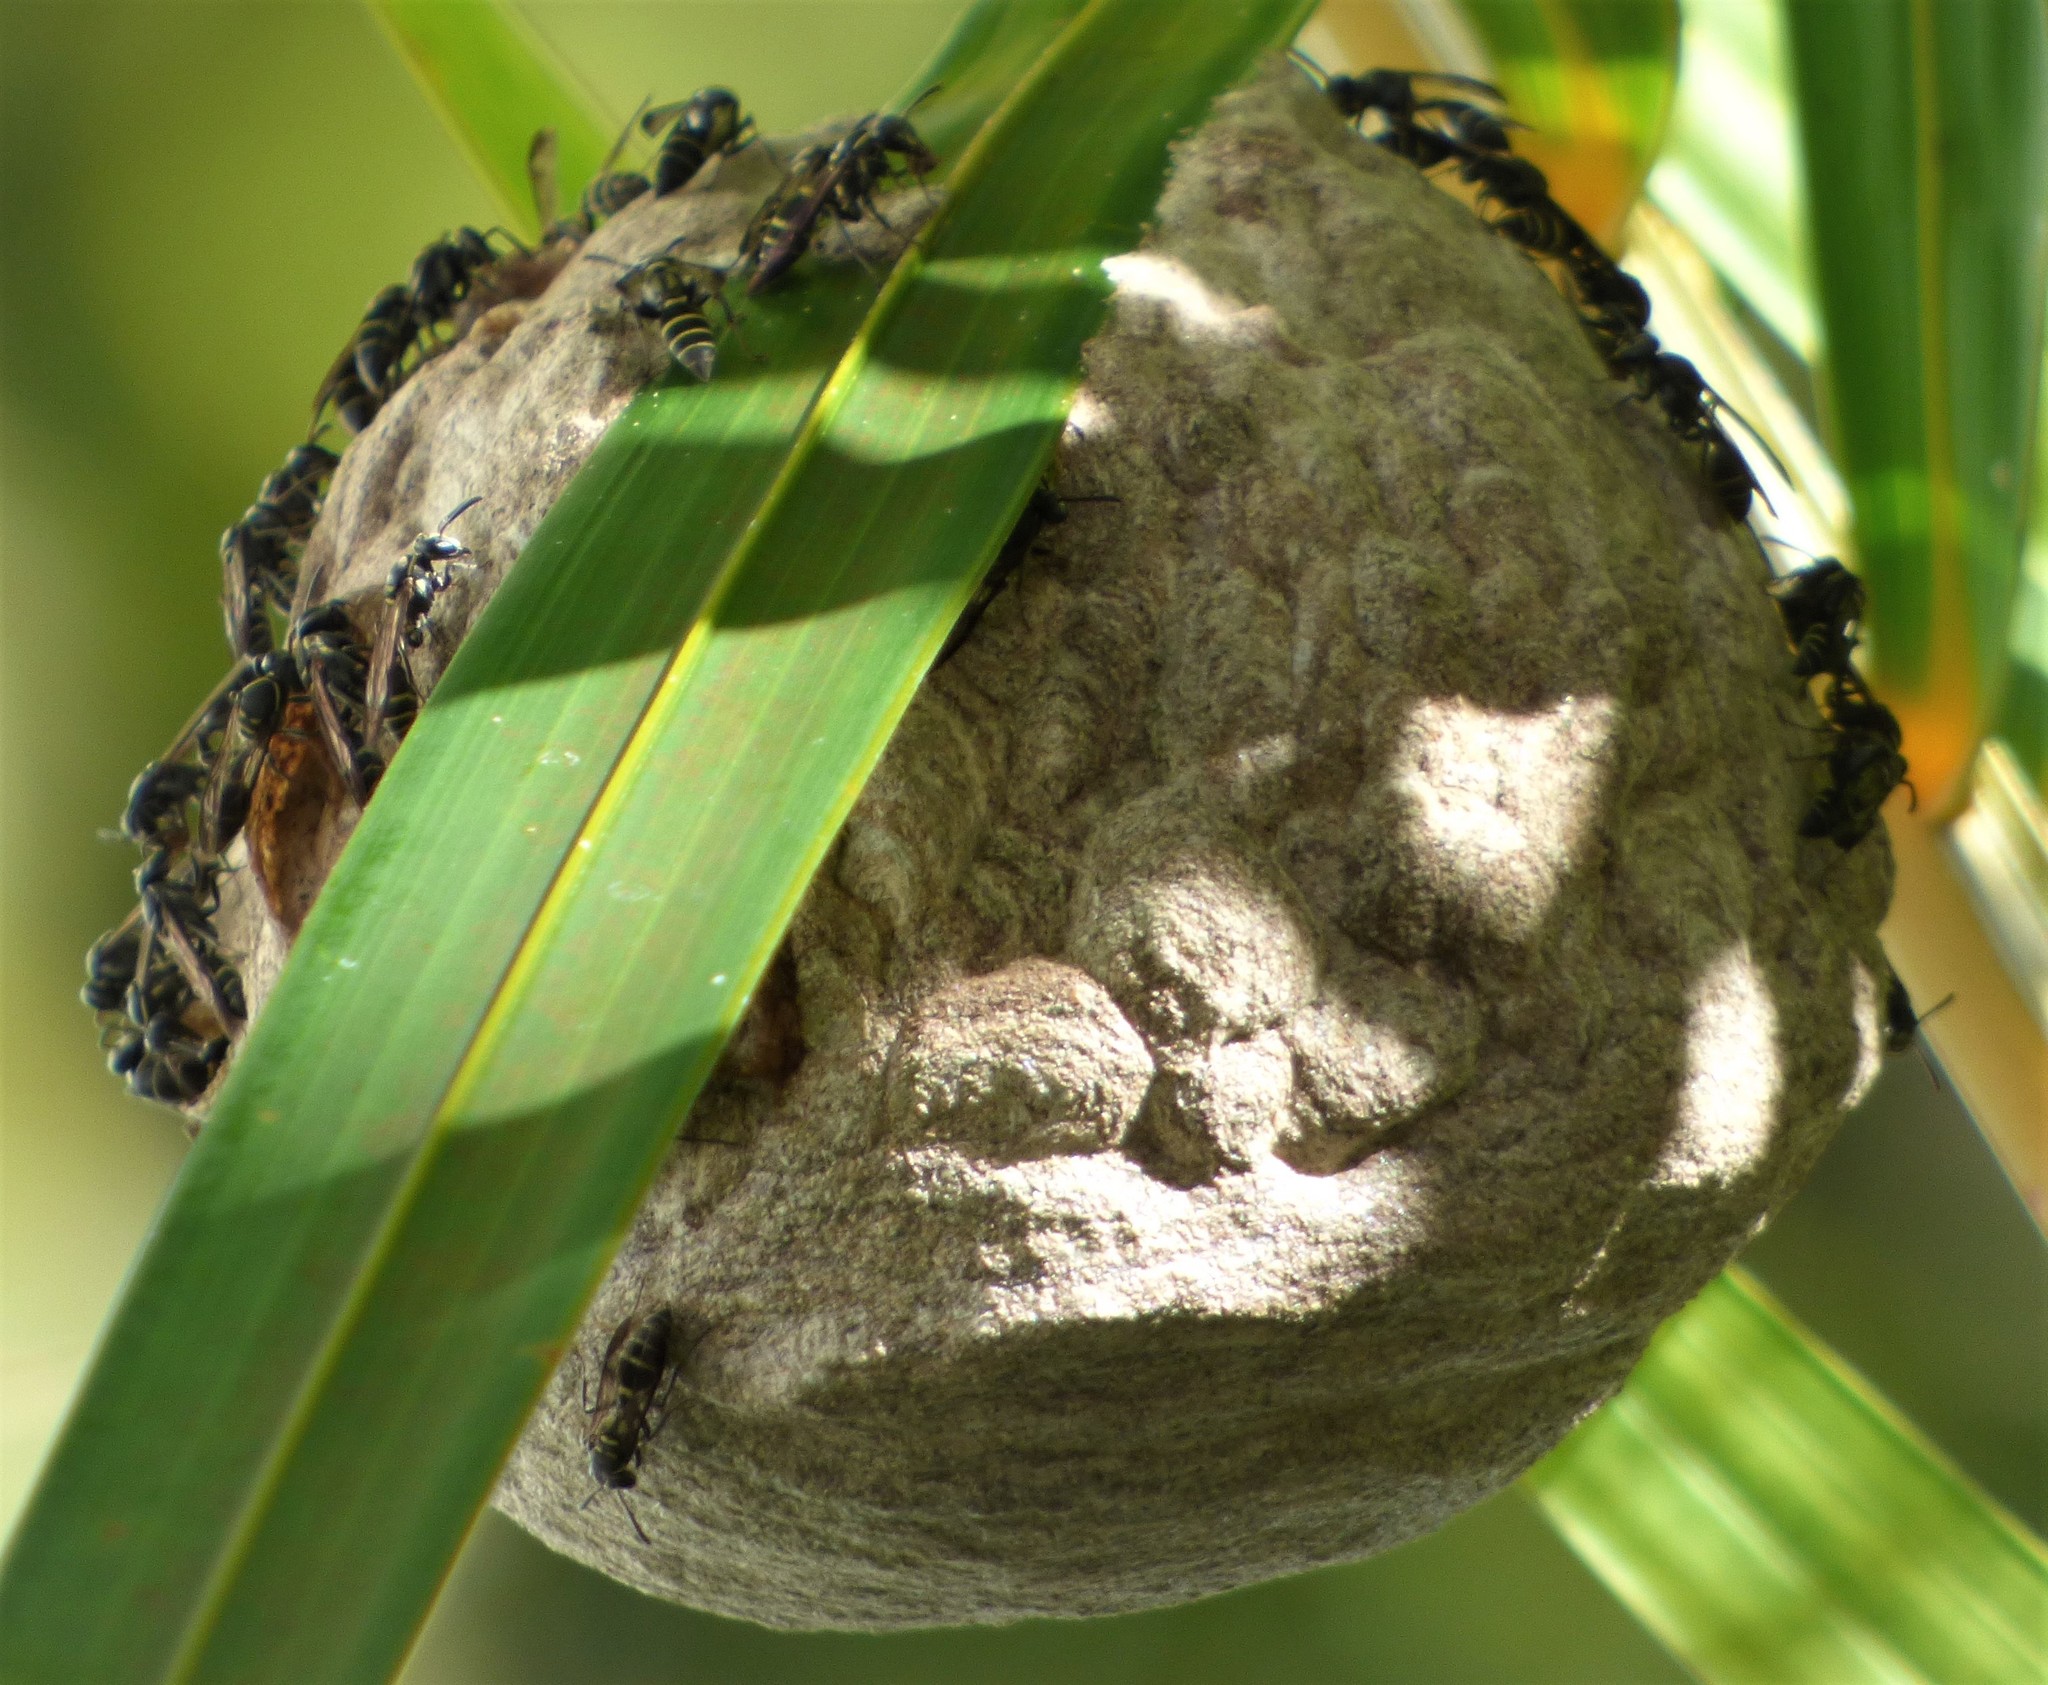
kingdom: Animalia
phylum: Arthropoda
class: Insecta
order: Hymenoptera
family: Eumenidae
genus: Polybia
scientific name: Polybia occidentalis
